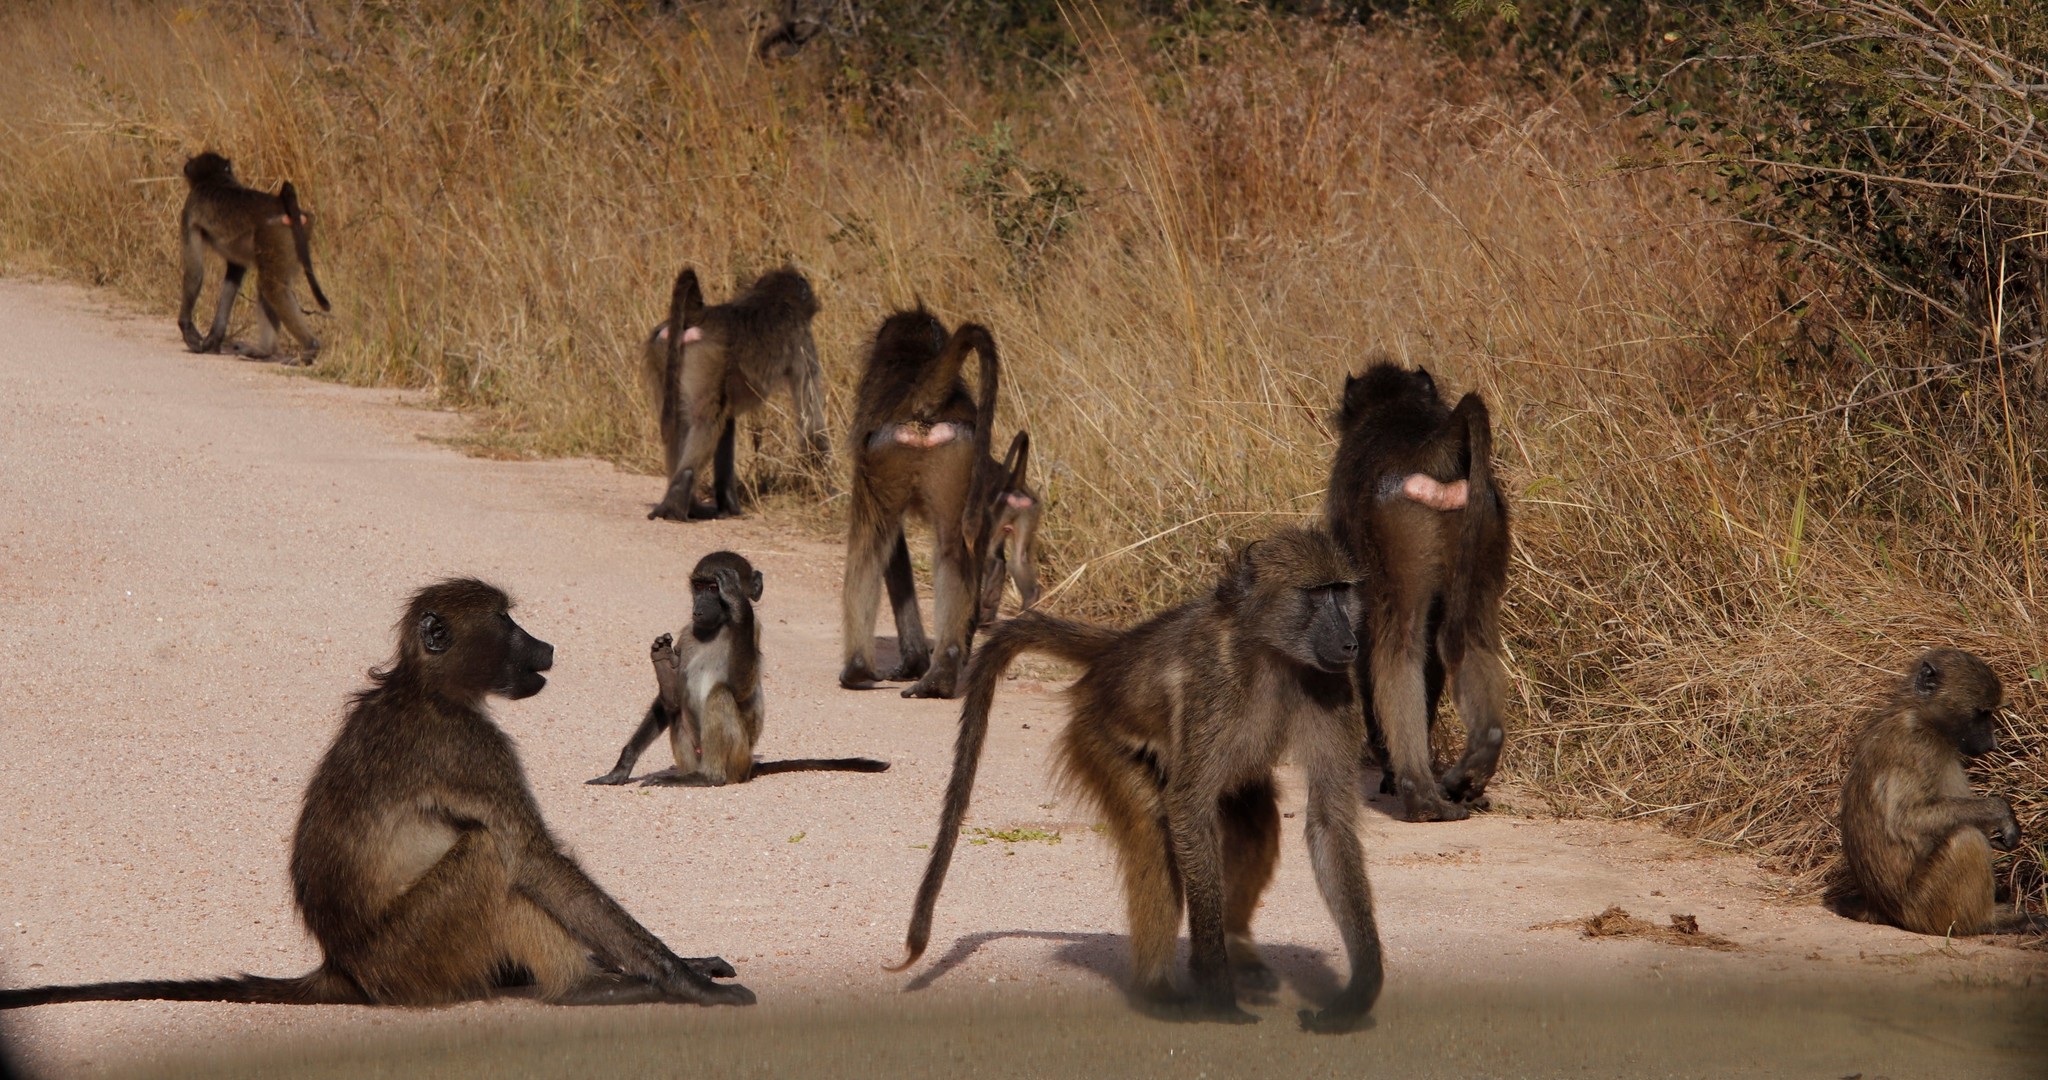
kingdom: Animalia
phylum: Chordata
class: Mammalia
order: Primates
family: Cercopithecidae
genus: Papio
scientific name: Papio ursinus
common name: Chacma baboon
